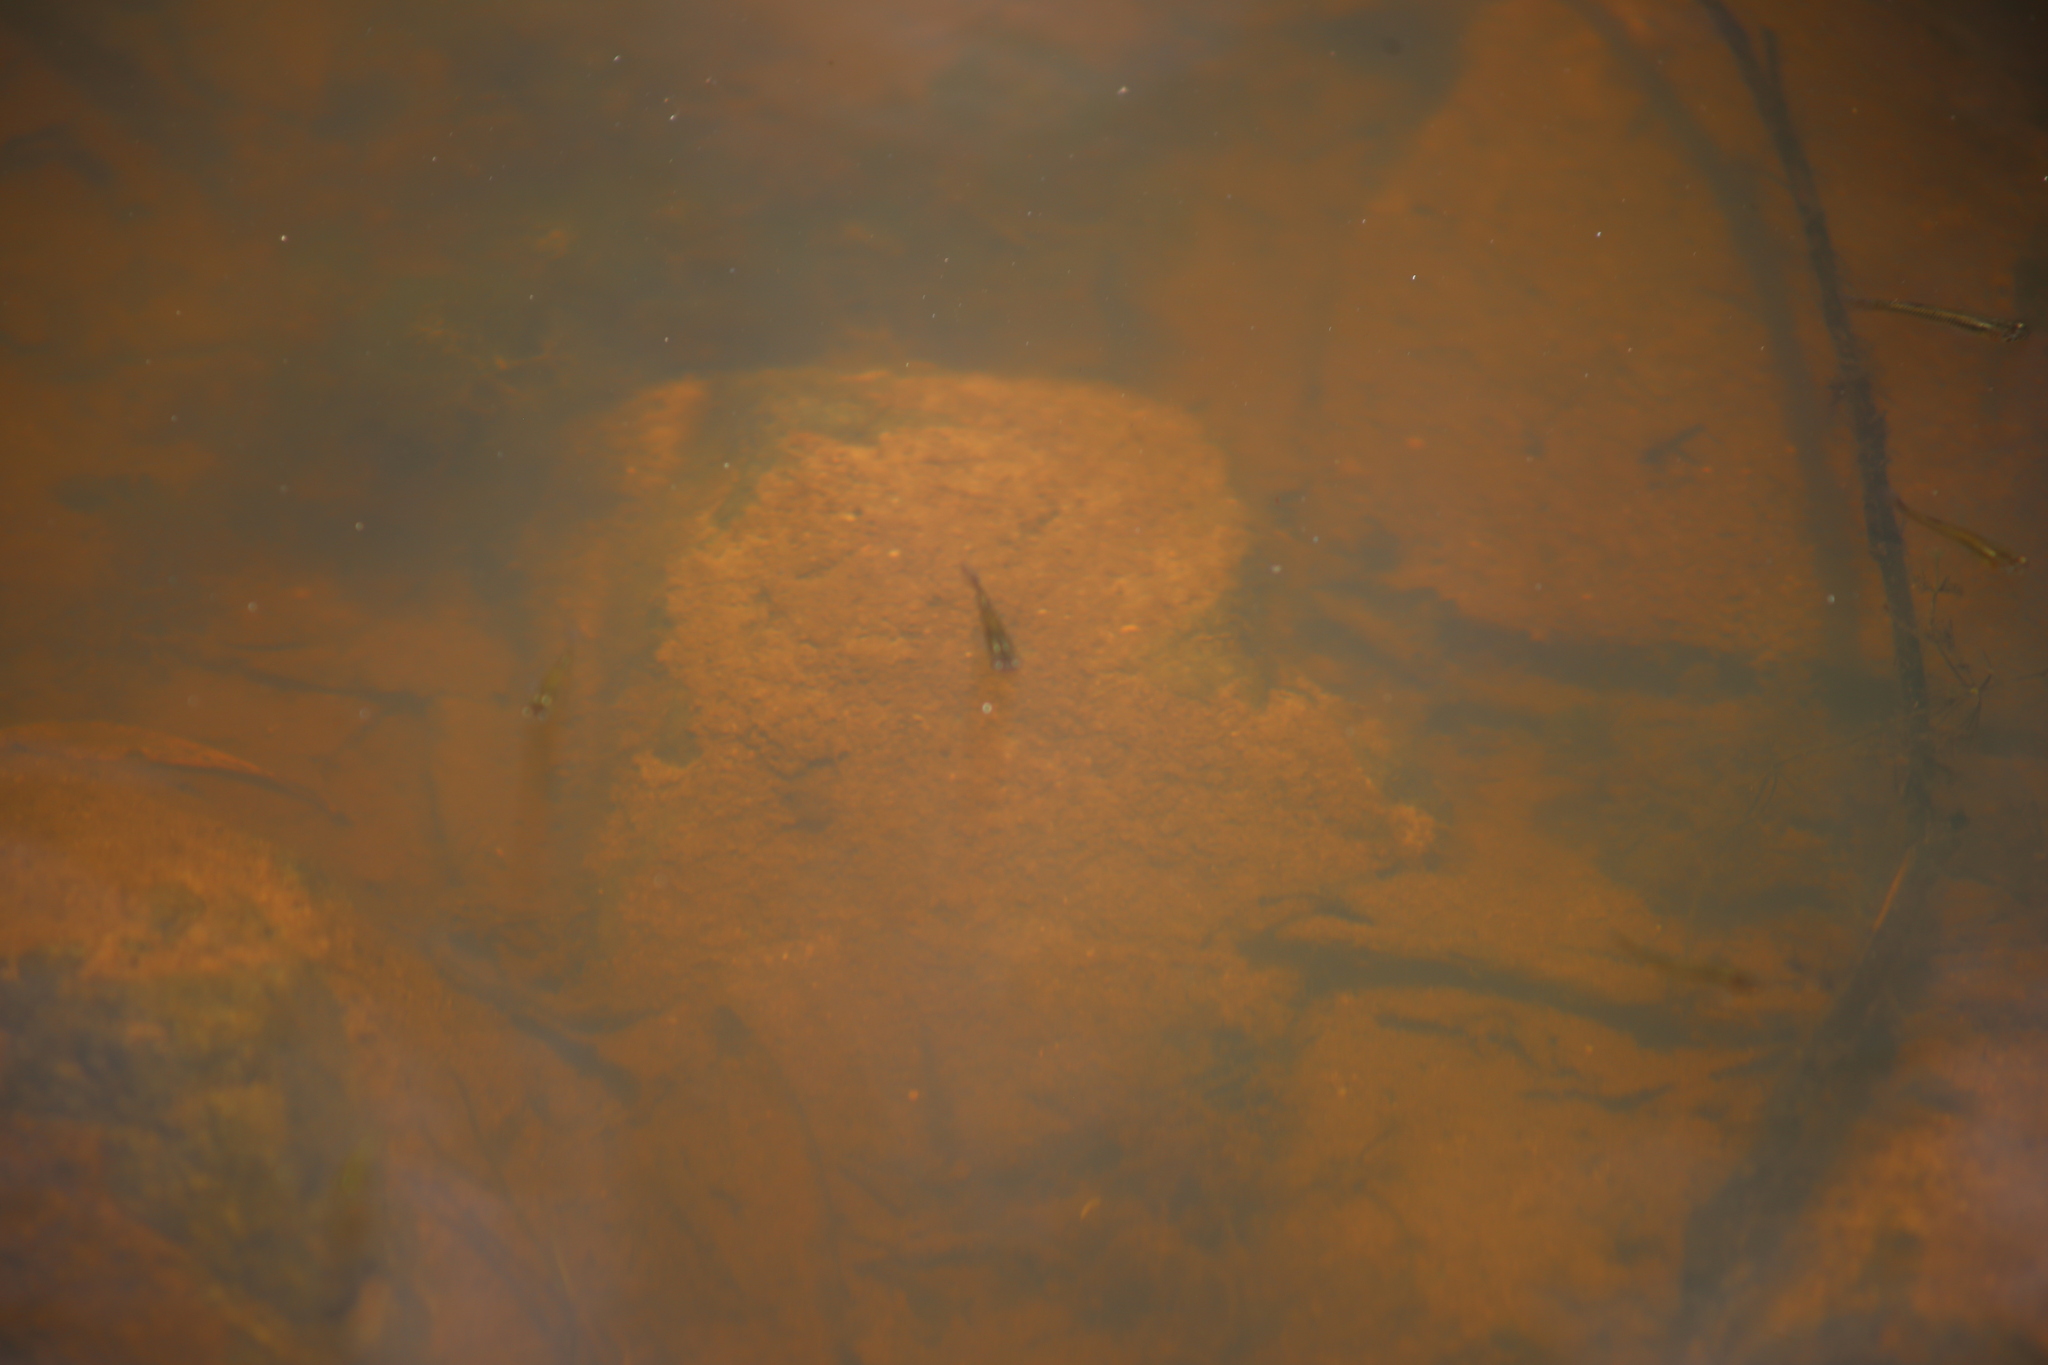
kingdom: Animalia
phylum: Chordata
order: Cyprinodontiformes
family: Poeciliidae
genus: Gambusia
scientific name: Gambusia holbrooki
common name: Eastern mosquitofish
